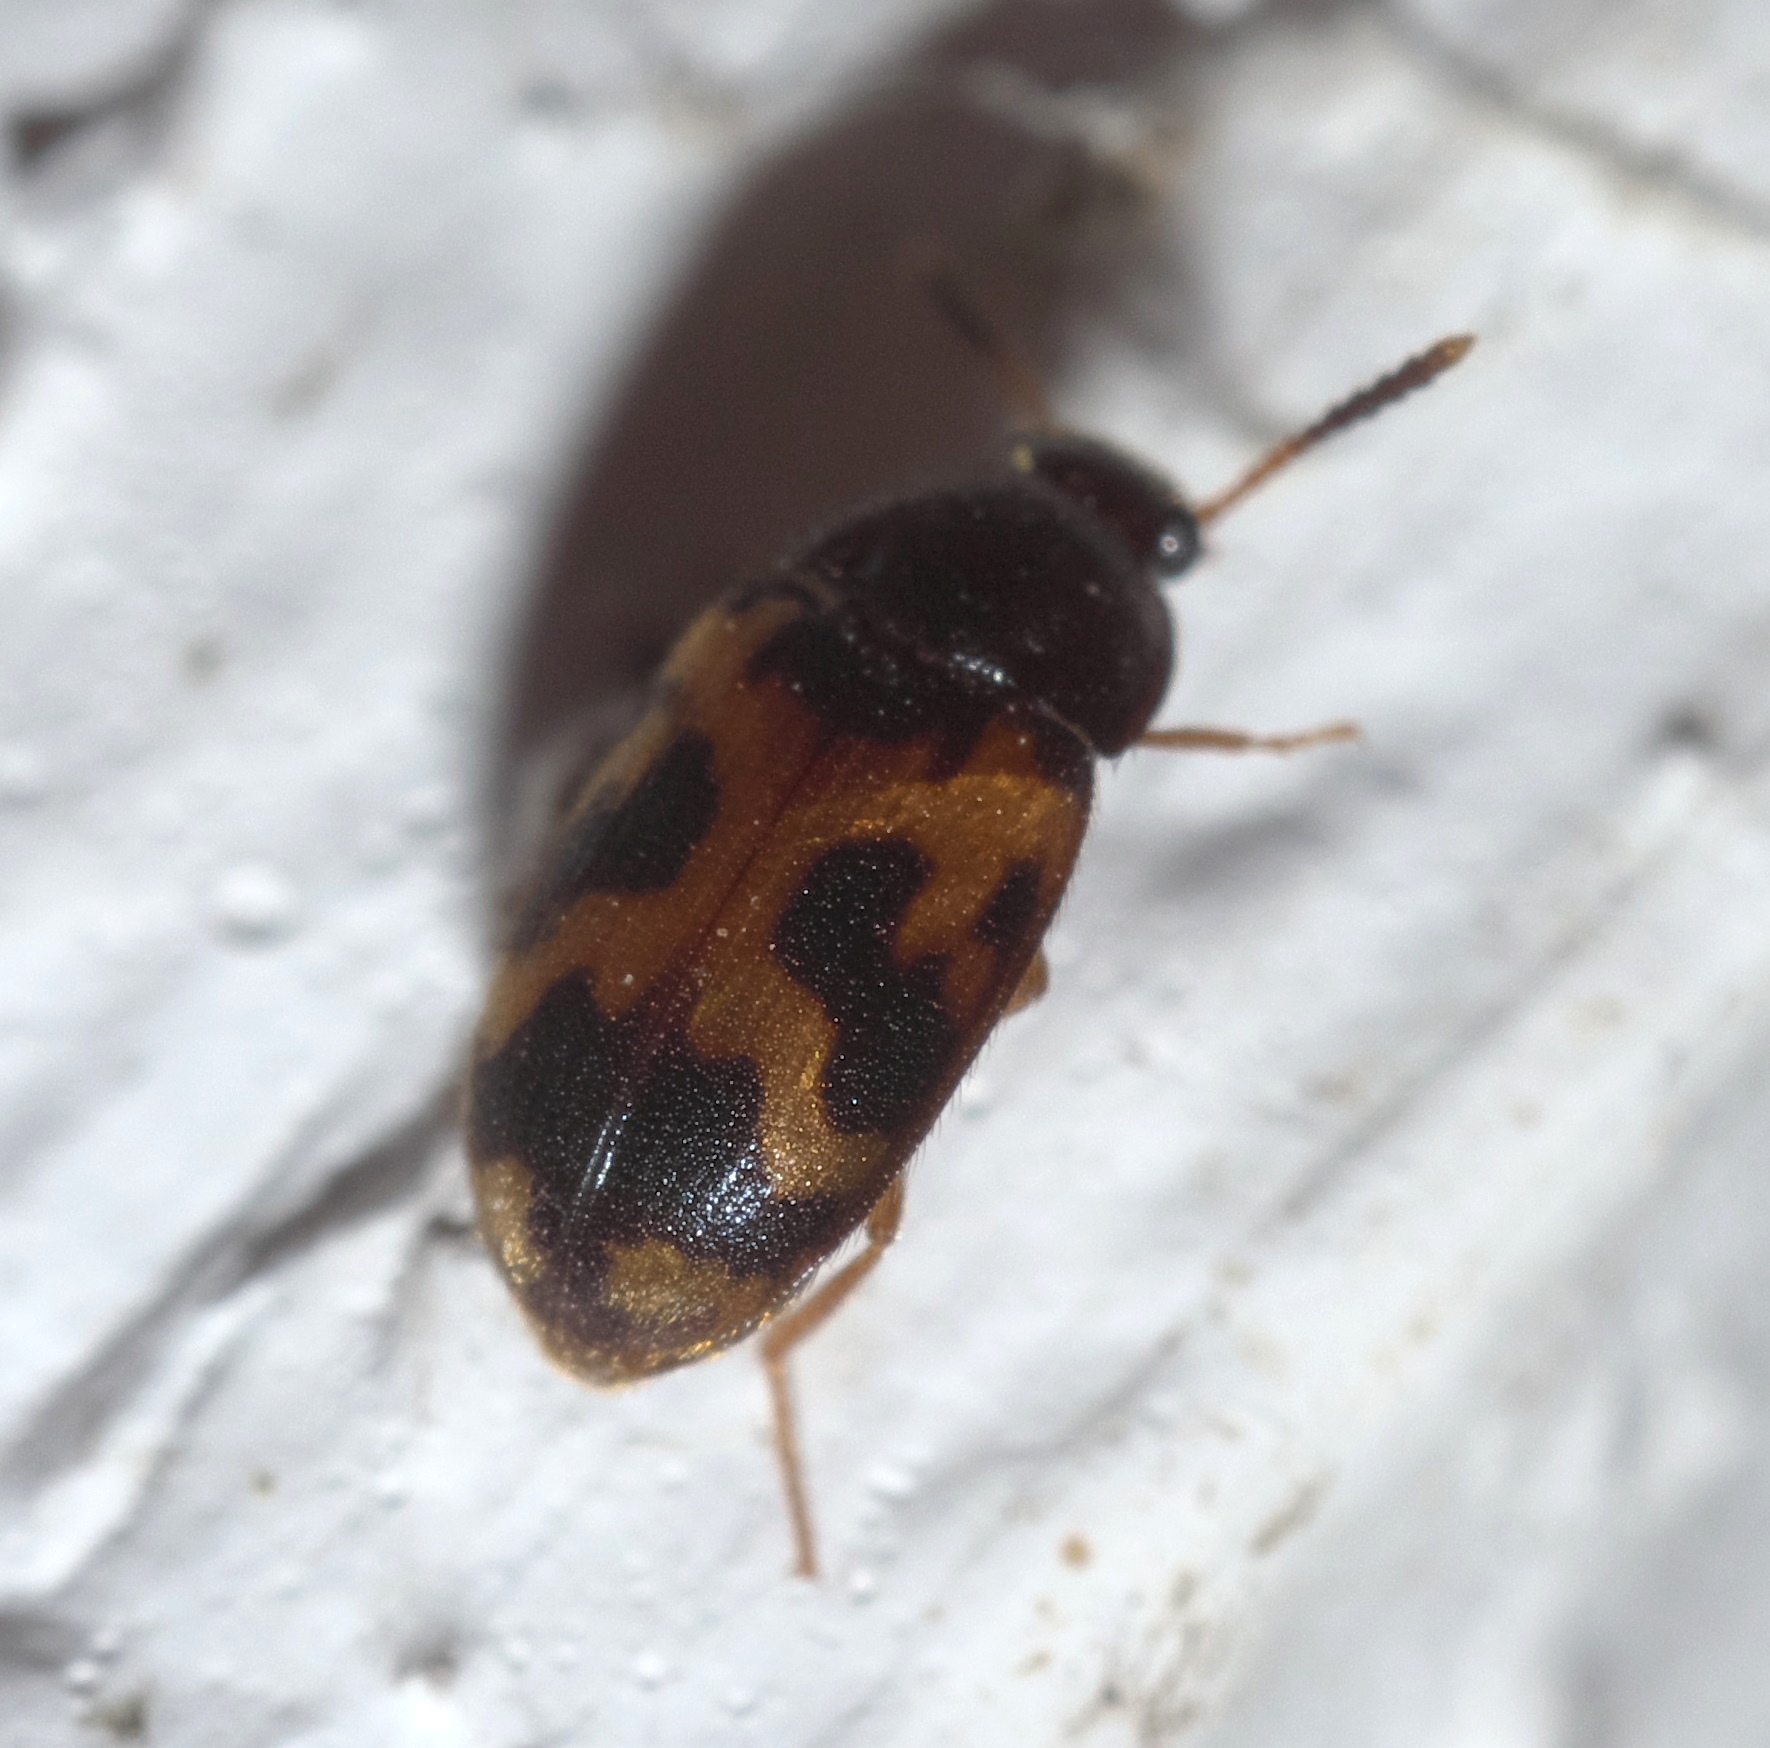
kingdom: Animalia
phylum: Arthropoda
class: Insecta
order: Coleoptera
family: Mycetophagidae
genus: Mycetophagus
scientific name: Mycetophagus flexuosus
